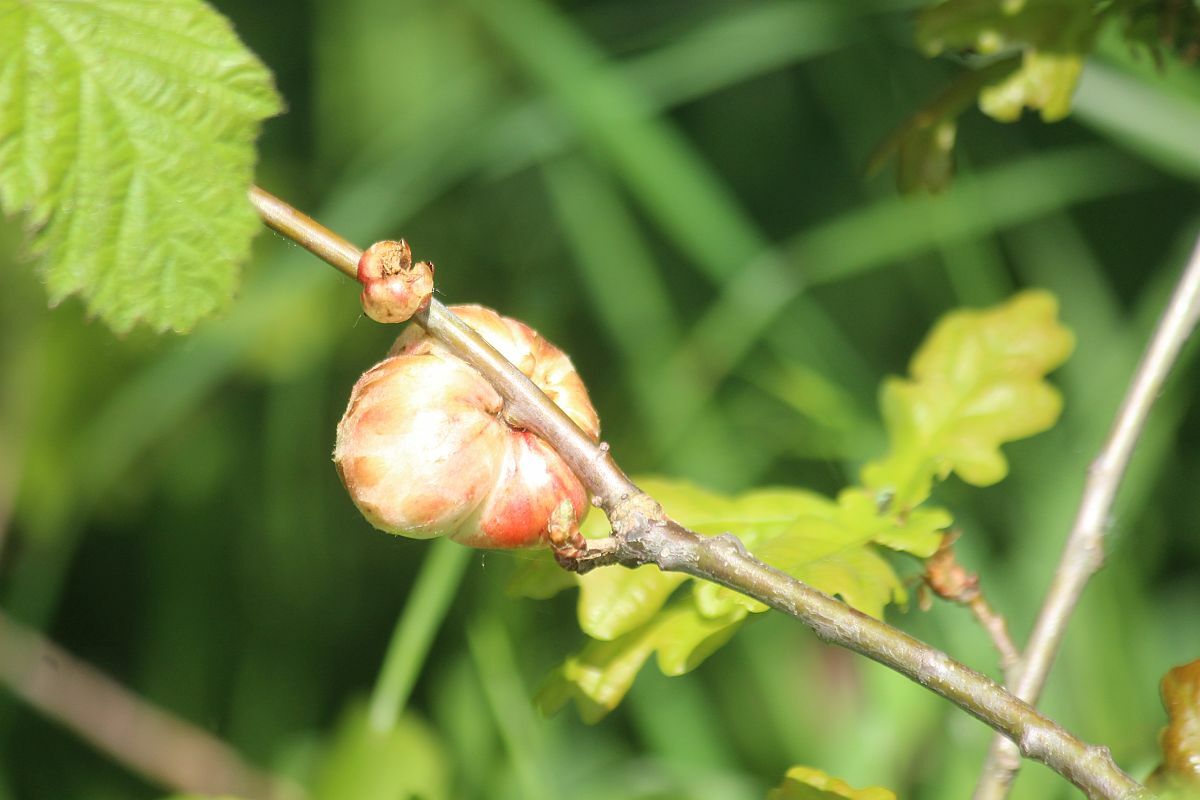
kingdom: Animalia
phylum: Arthropoda
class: Insecta
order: Hymenoptera
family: Cynipidae
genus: Biorhiza
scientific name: Biorhiza pallida
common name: Oak apple
